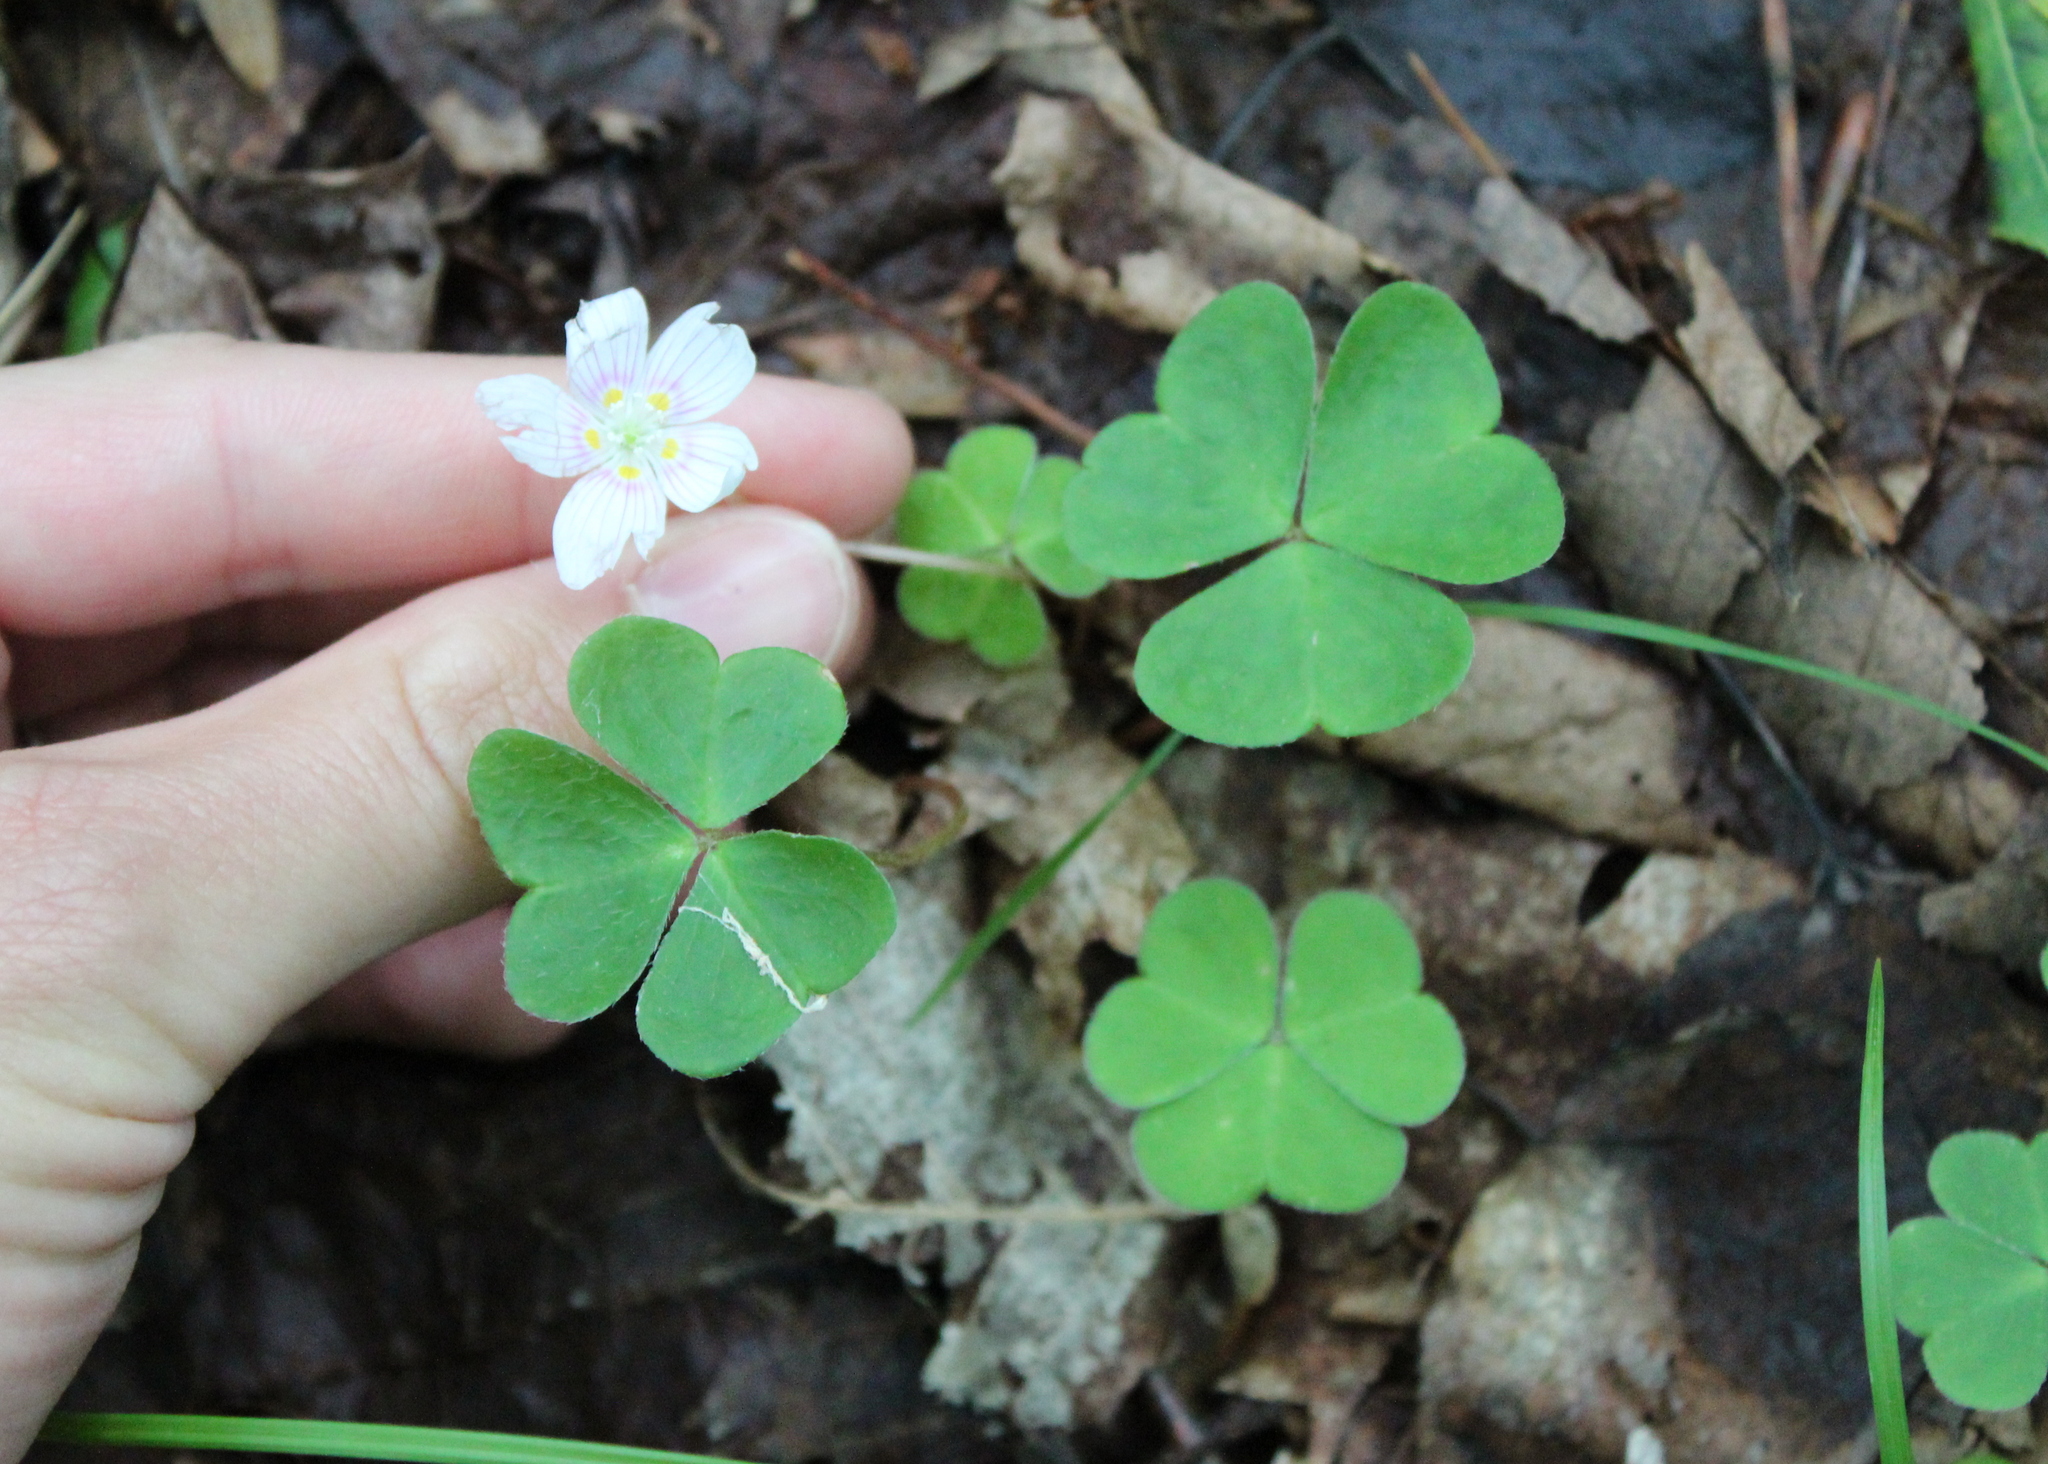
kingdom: Plantae
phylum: Tracheophyta
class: Magnoliopsida
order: Oxalidales
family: Oxalidaceae
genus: Oxalis
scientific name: Oxalis montana
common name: American wood-sorrel
